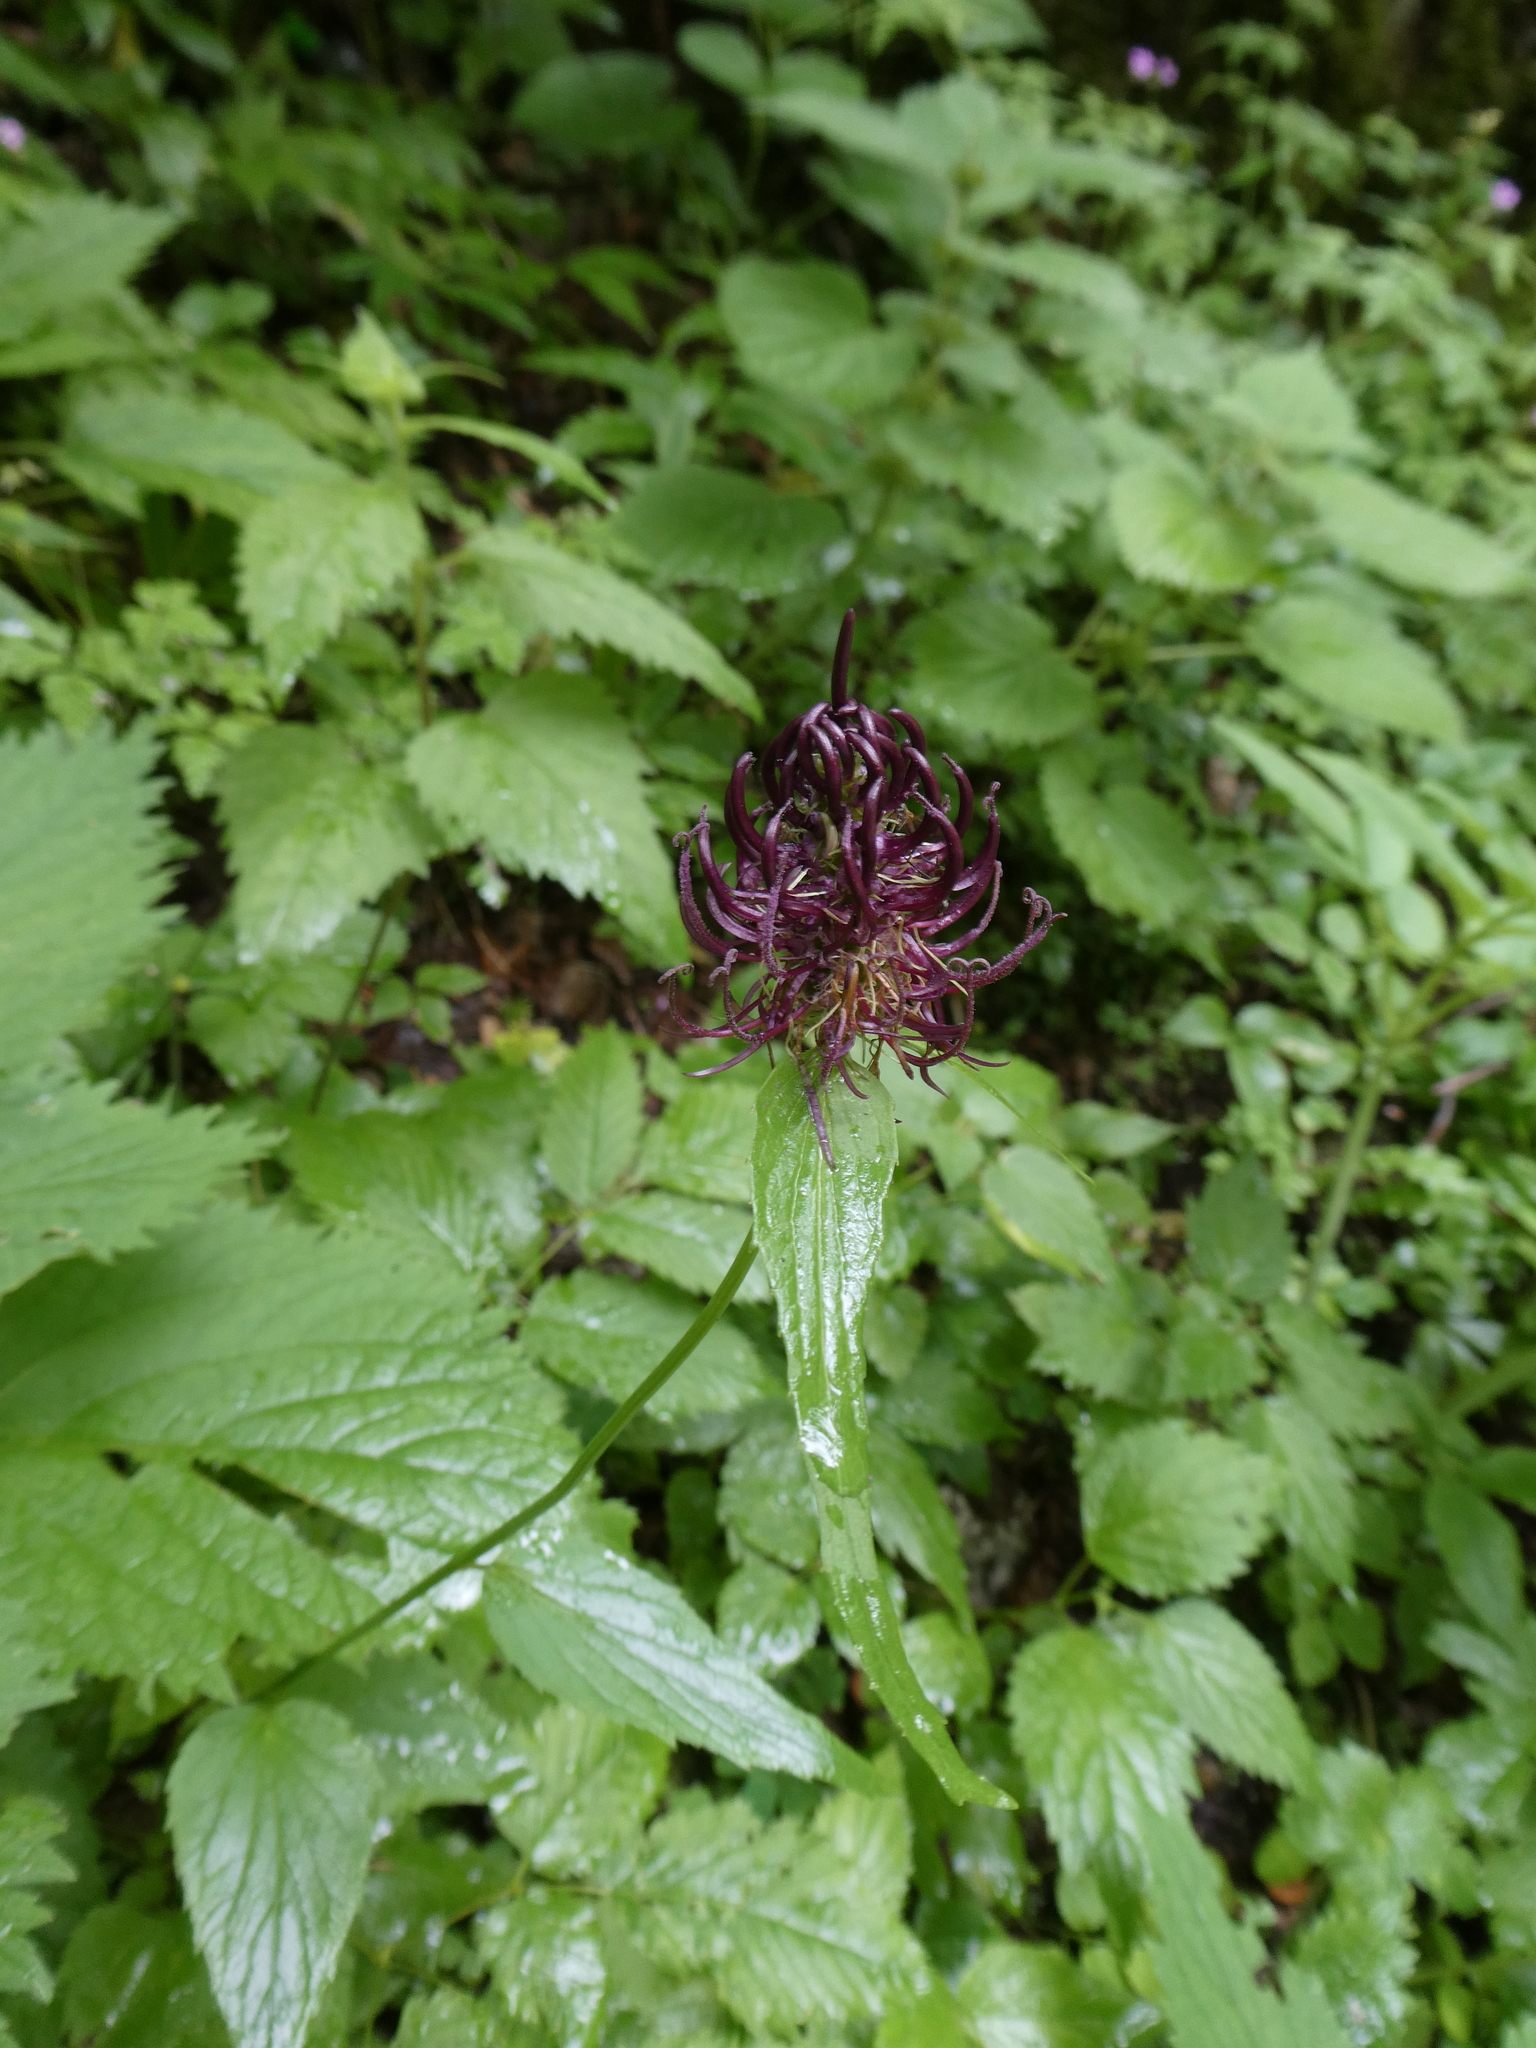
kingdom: Plantae
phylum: Tracheophyta
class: Magnoliopsida
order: Asterales
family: Campanulaceae
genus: Phyteuma
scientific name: Phyteuma ovatum
